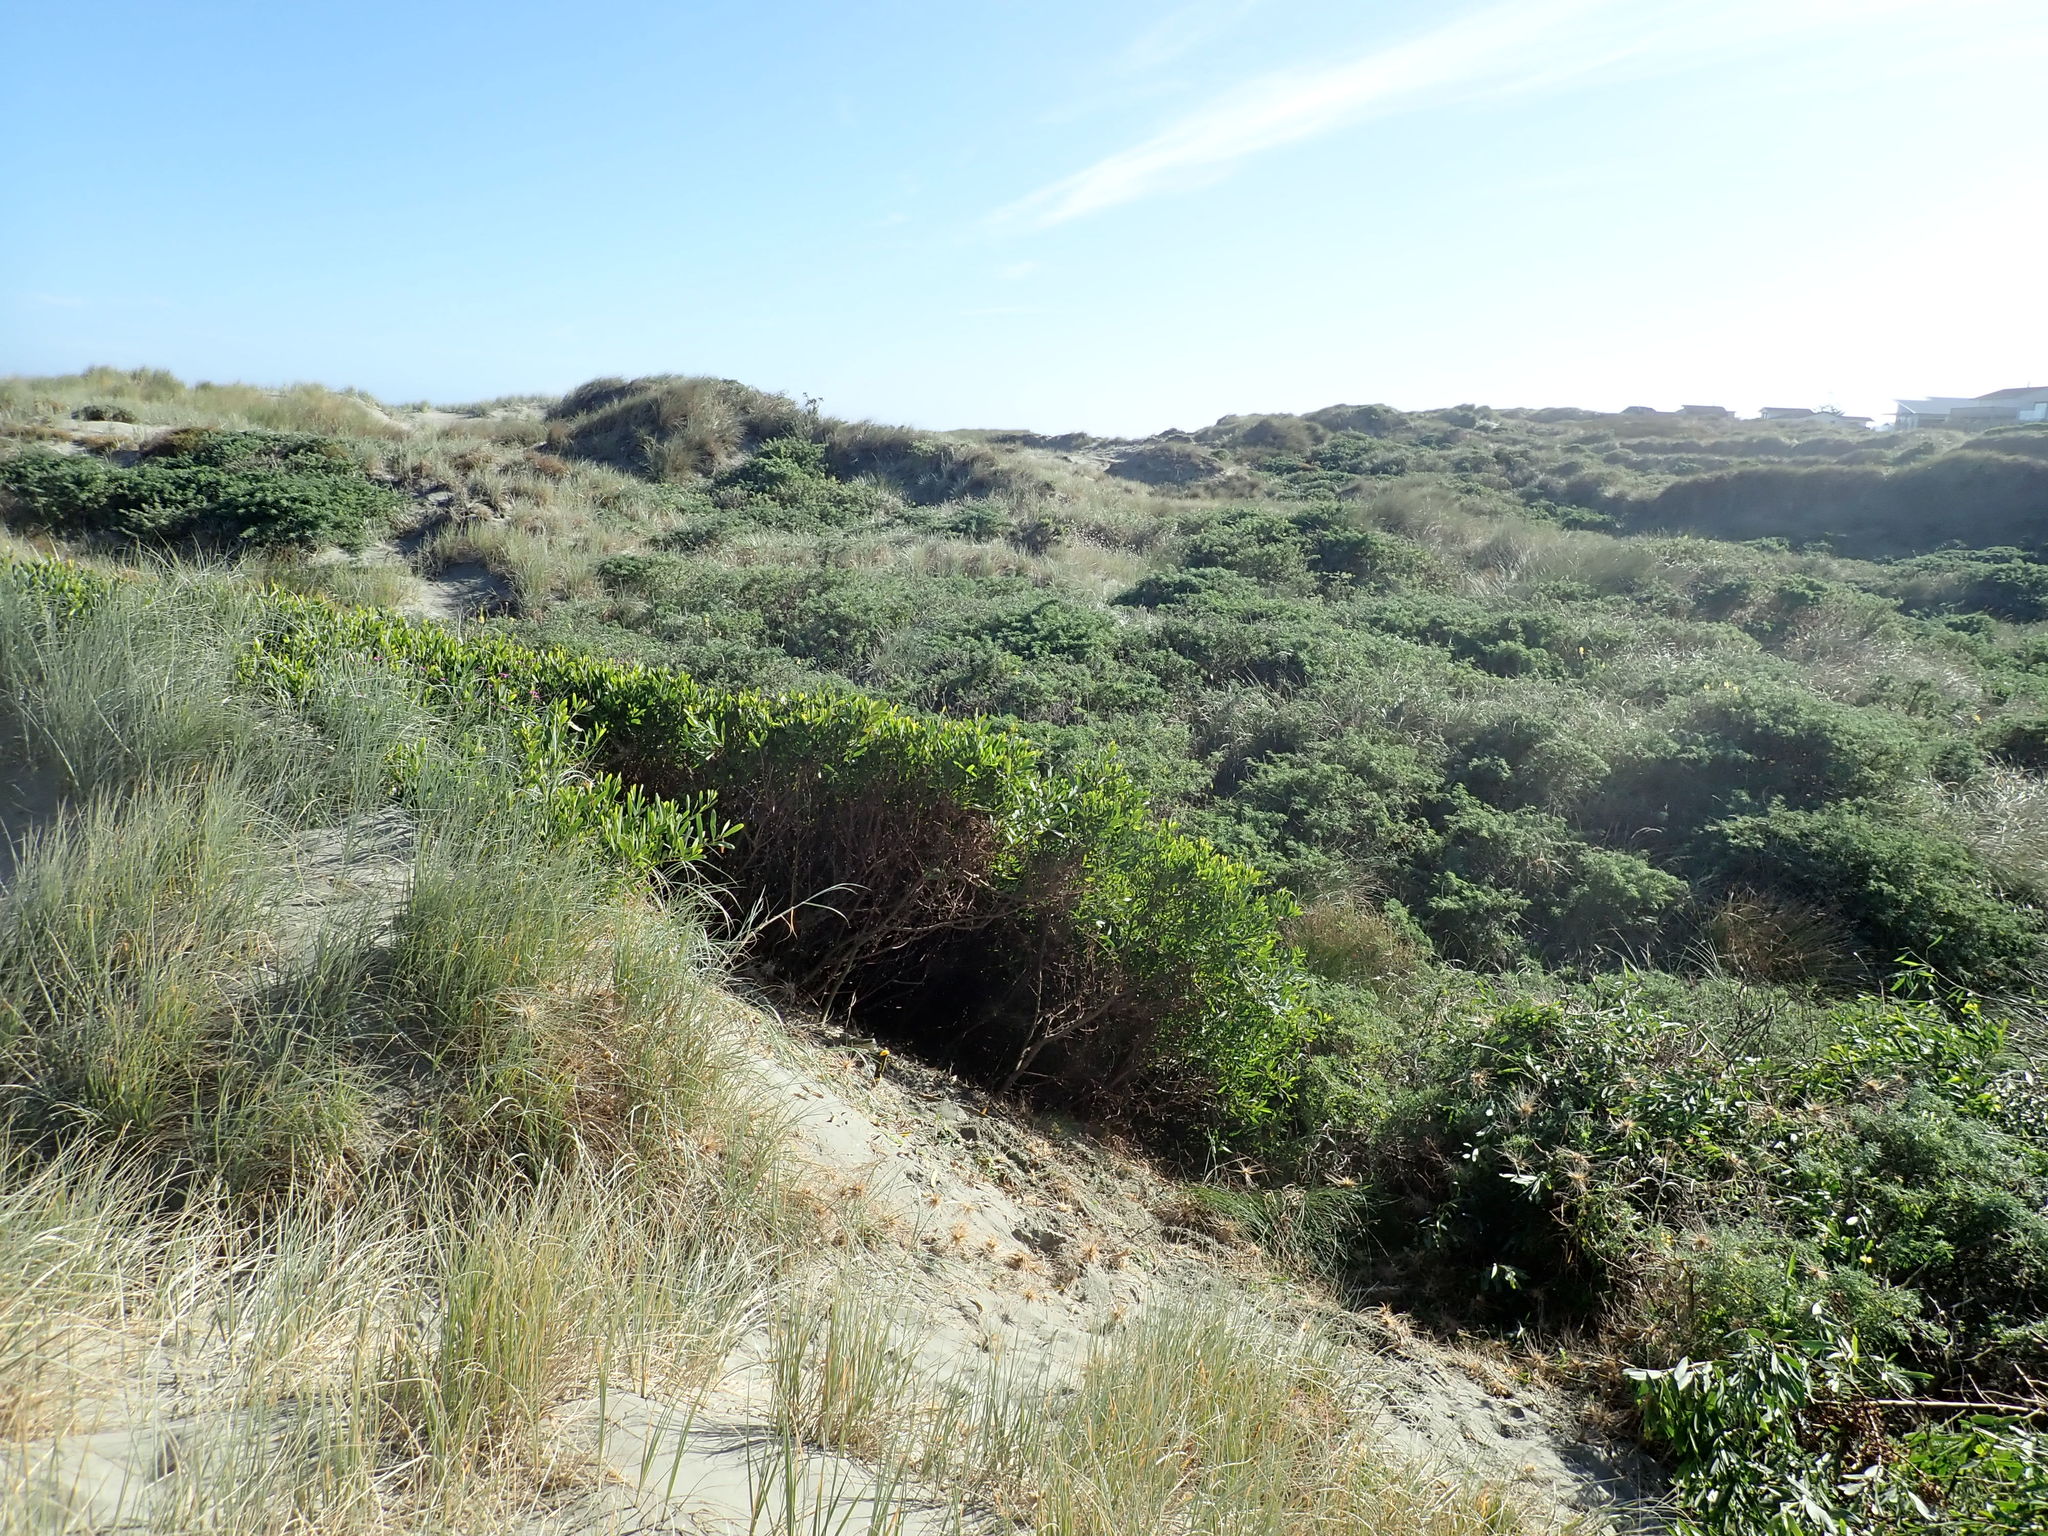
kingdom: Plantae
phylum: Tracheophyta
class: Magnoliopsida
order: Fabales
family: Fabaceae
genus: Acacia
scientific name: Acacia longifolia
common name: Sydney golden wattle
